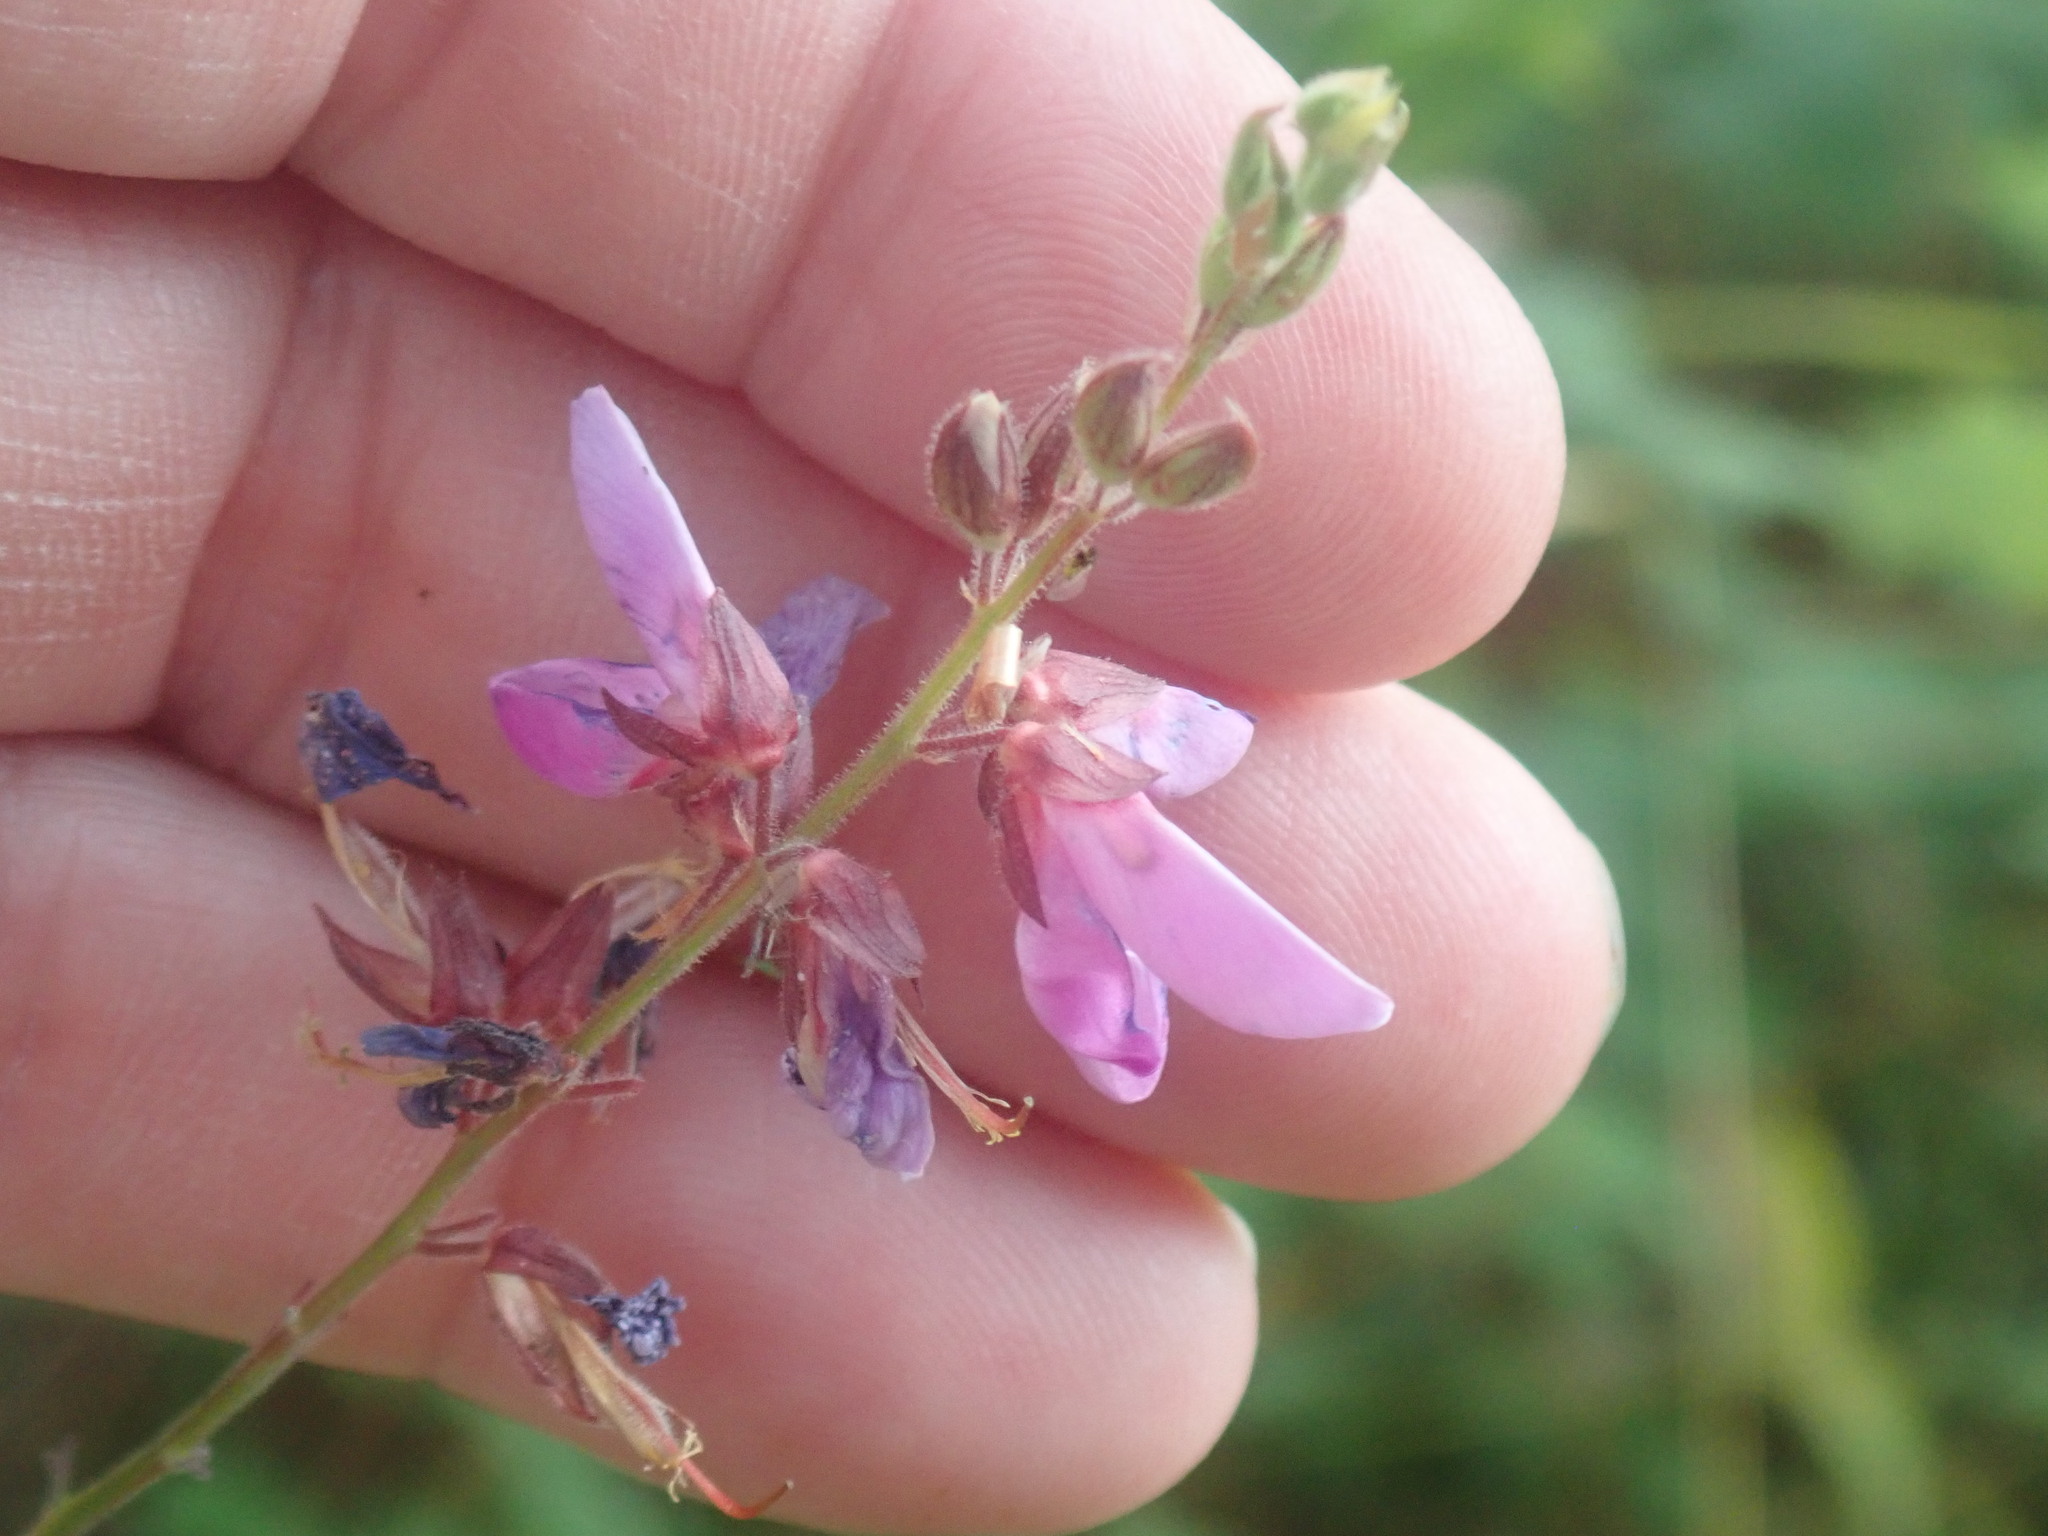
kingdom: Plantae
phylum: Tracheophyta
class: Magnoliopsida
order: Fabales
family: Fabaceae
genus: Desmodium
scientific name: Desmodium canadense
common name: Canada tick-trefoil
